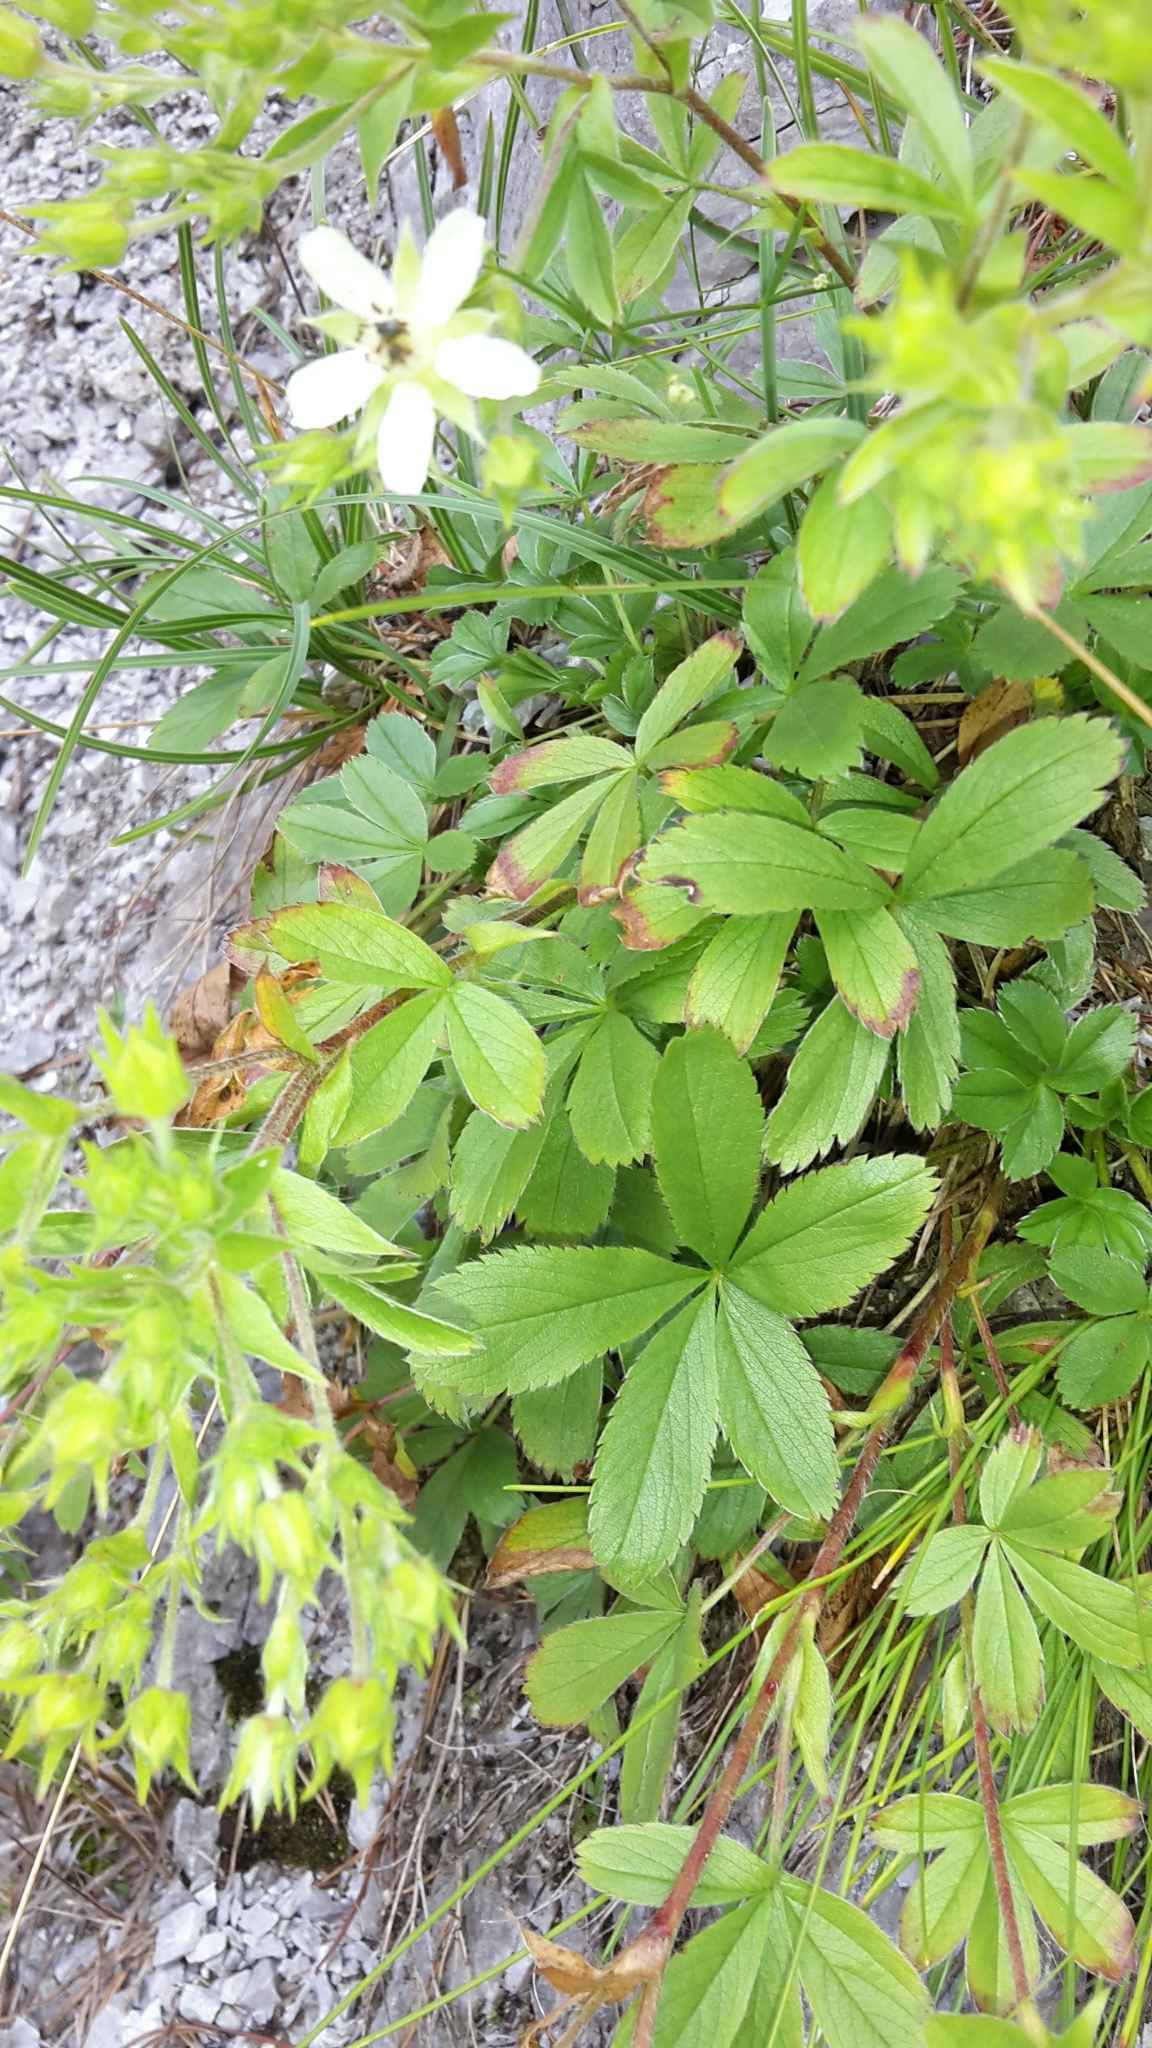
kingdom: Plantae
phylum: Tracheophyta
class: Magnoliopsida
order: Rosales
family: Rosaceae
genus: Potentilla
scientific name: Potentilla caulescens
